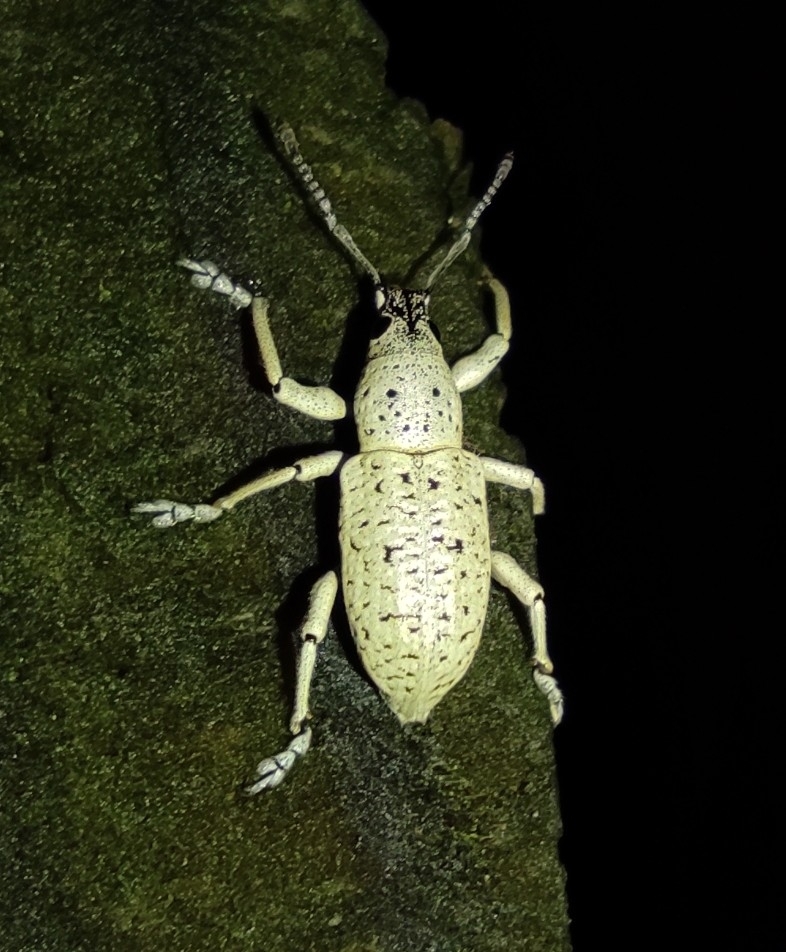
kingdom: Animalia
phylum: Arthropoda
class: Insecta
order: Coleoptera
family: Curculionidae
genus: Exophthalmus
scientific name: Exophthalmus scalptus
